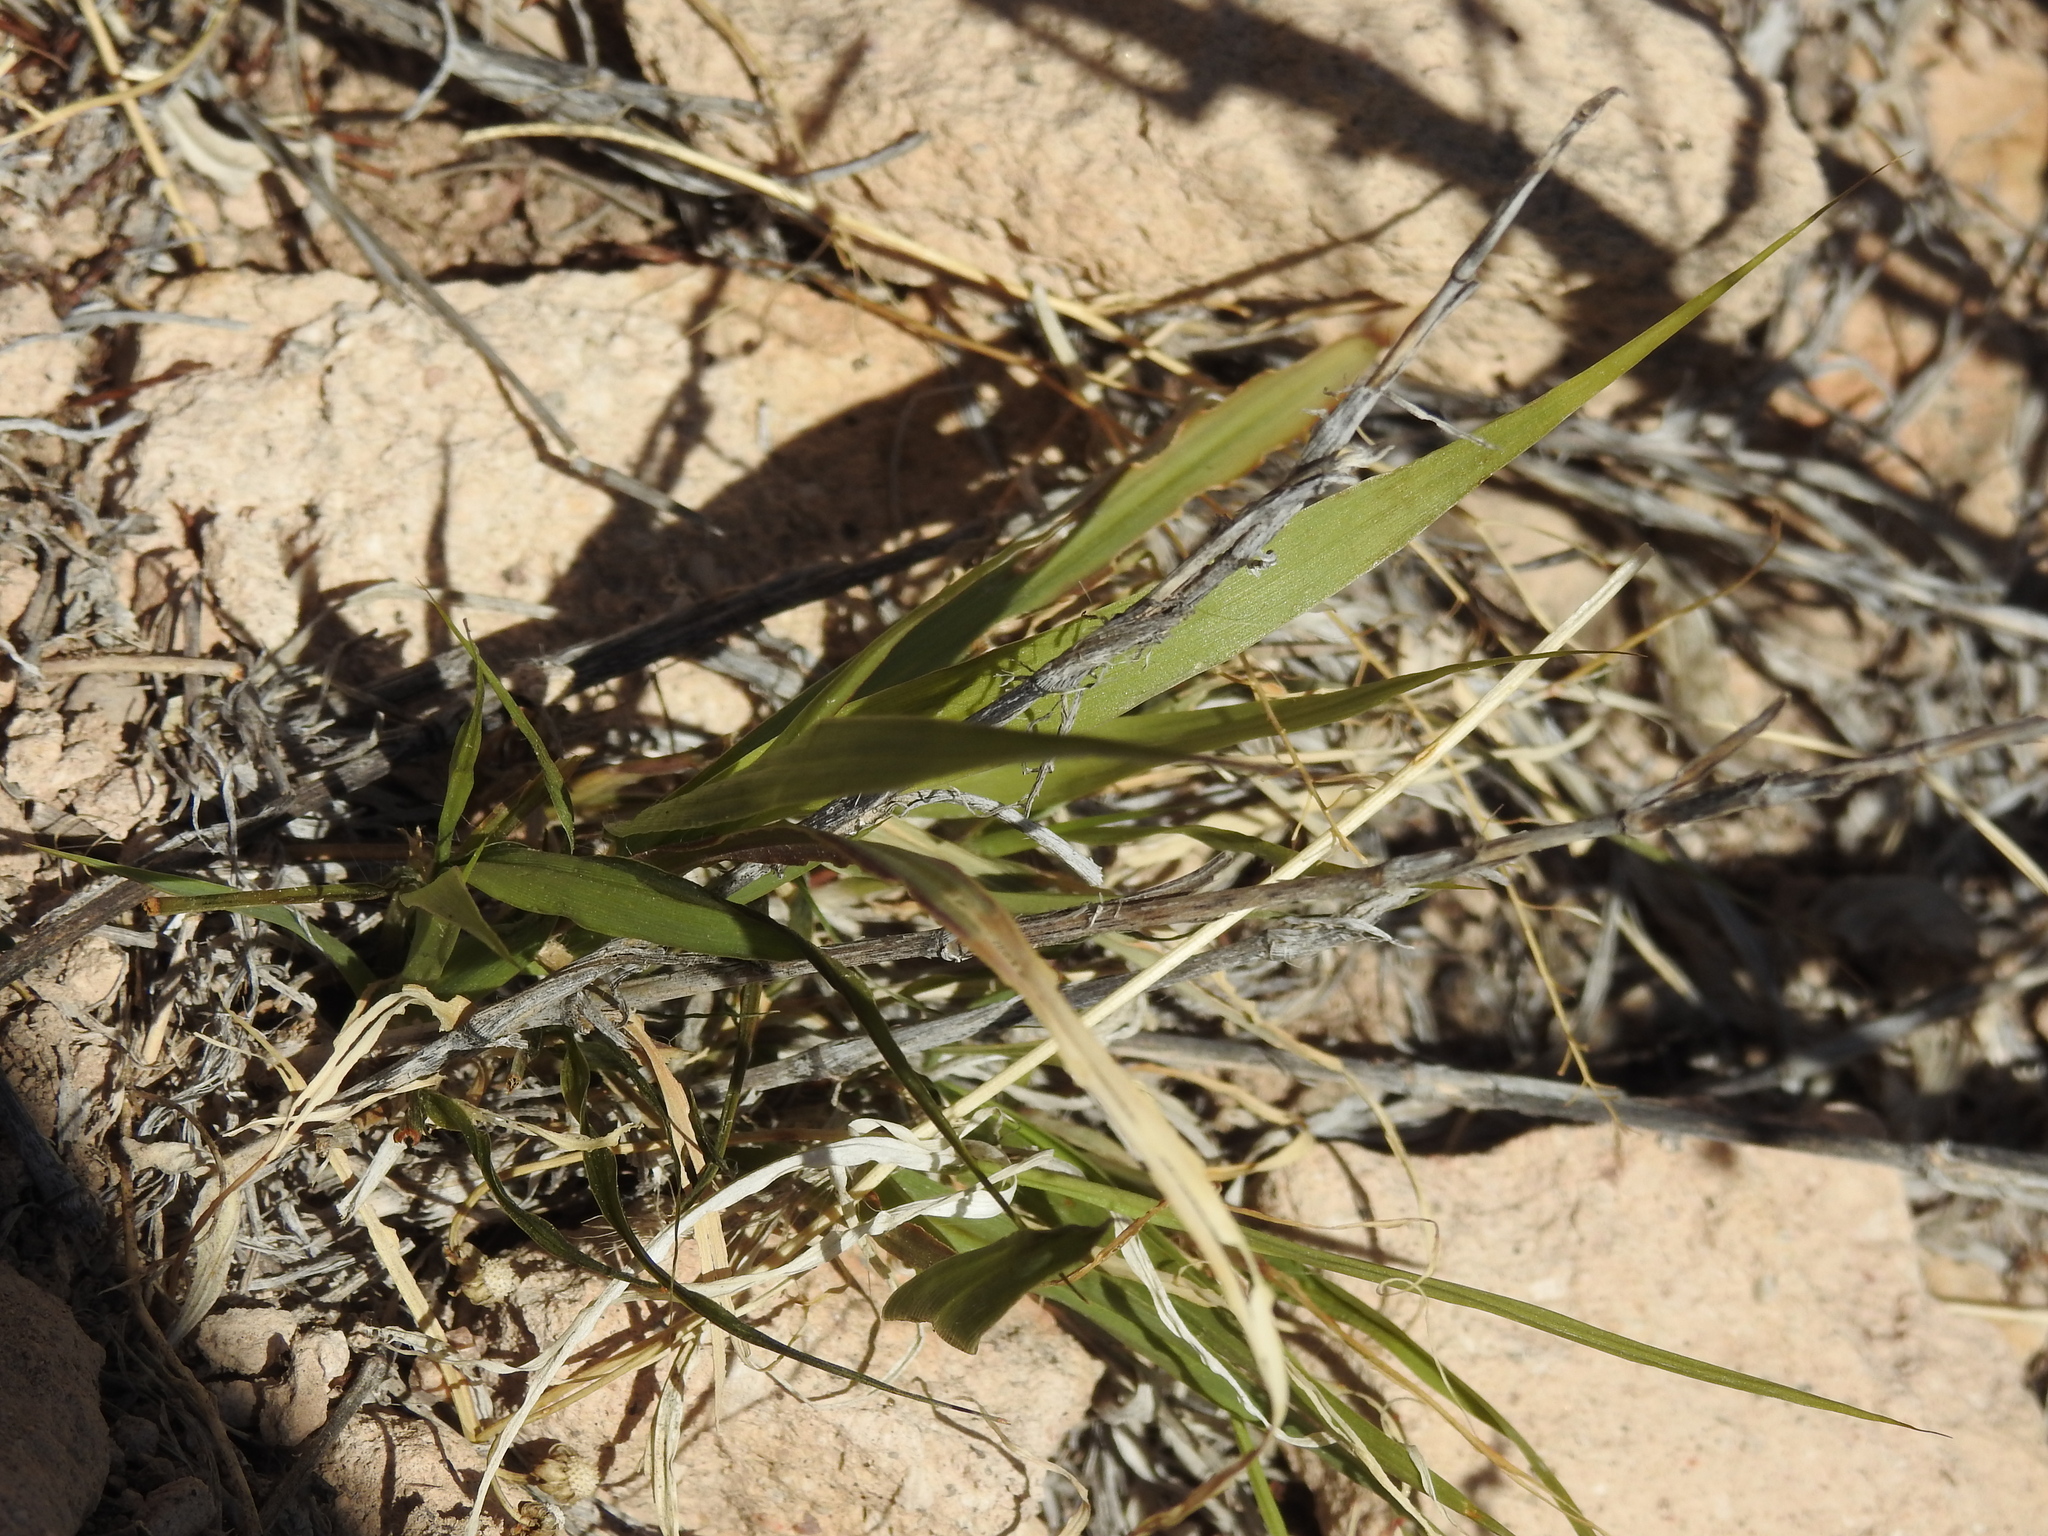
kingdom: Plantae
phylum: Tracheophyta
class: Liliopsida
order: Poales
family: Poaceae
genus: Cenchrus
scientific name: Cenchrus ciliaris
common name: Buffelgrass
